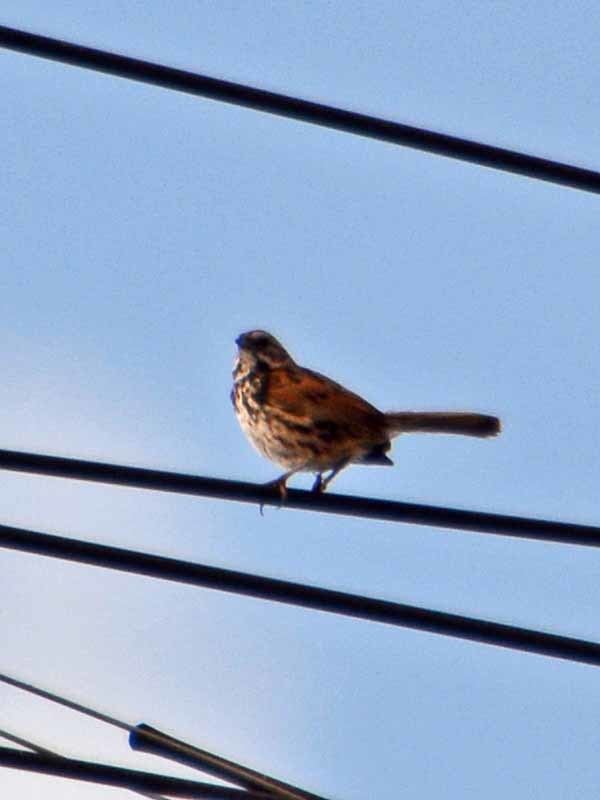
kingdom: Animalia
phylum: Chordata
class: Aves
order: Passeriformes
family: Passerellidae
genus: Melospiza
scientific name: Melospiza melodia
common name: Song sparrow
